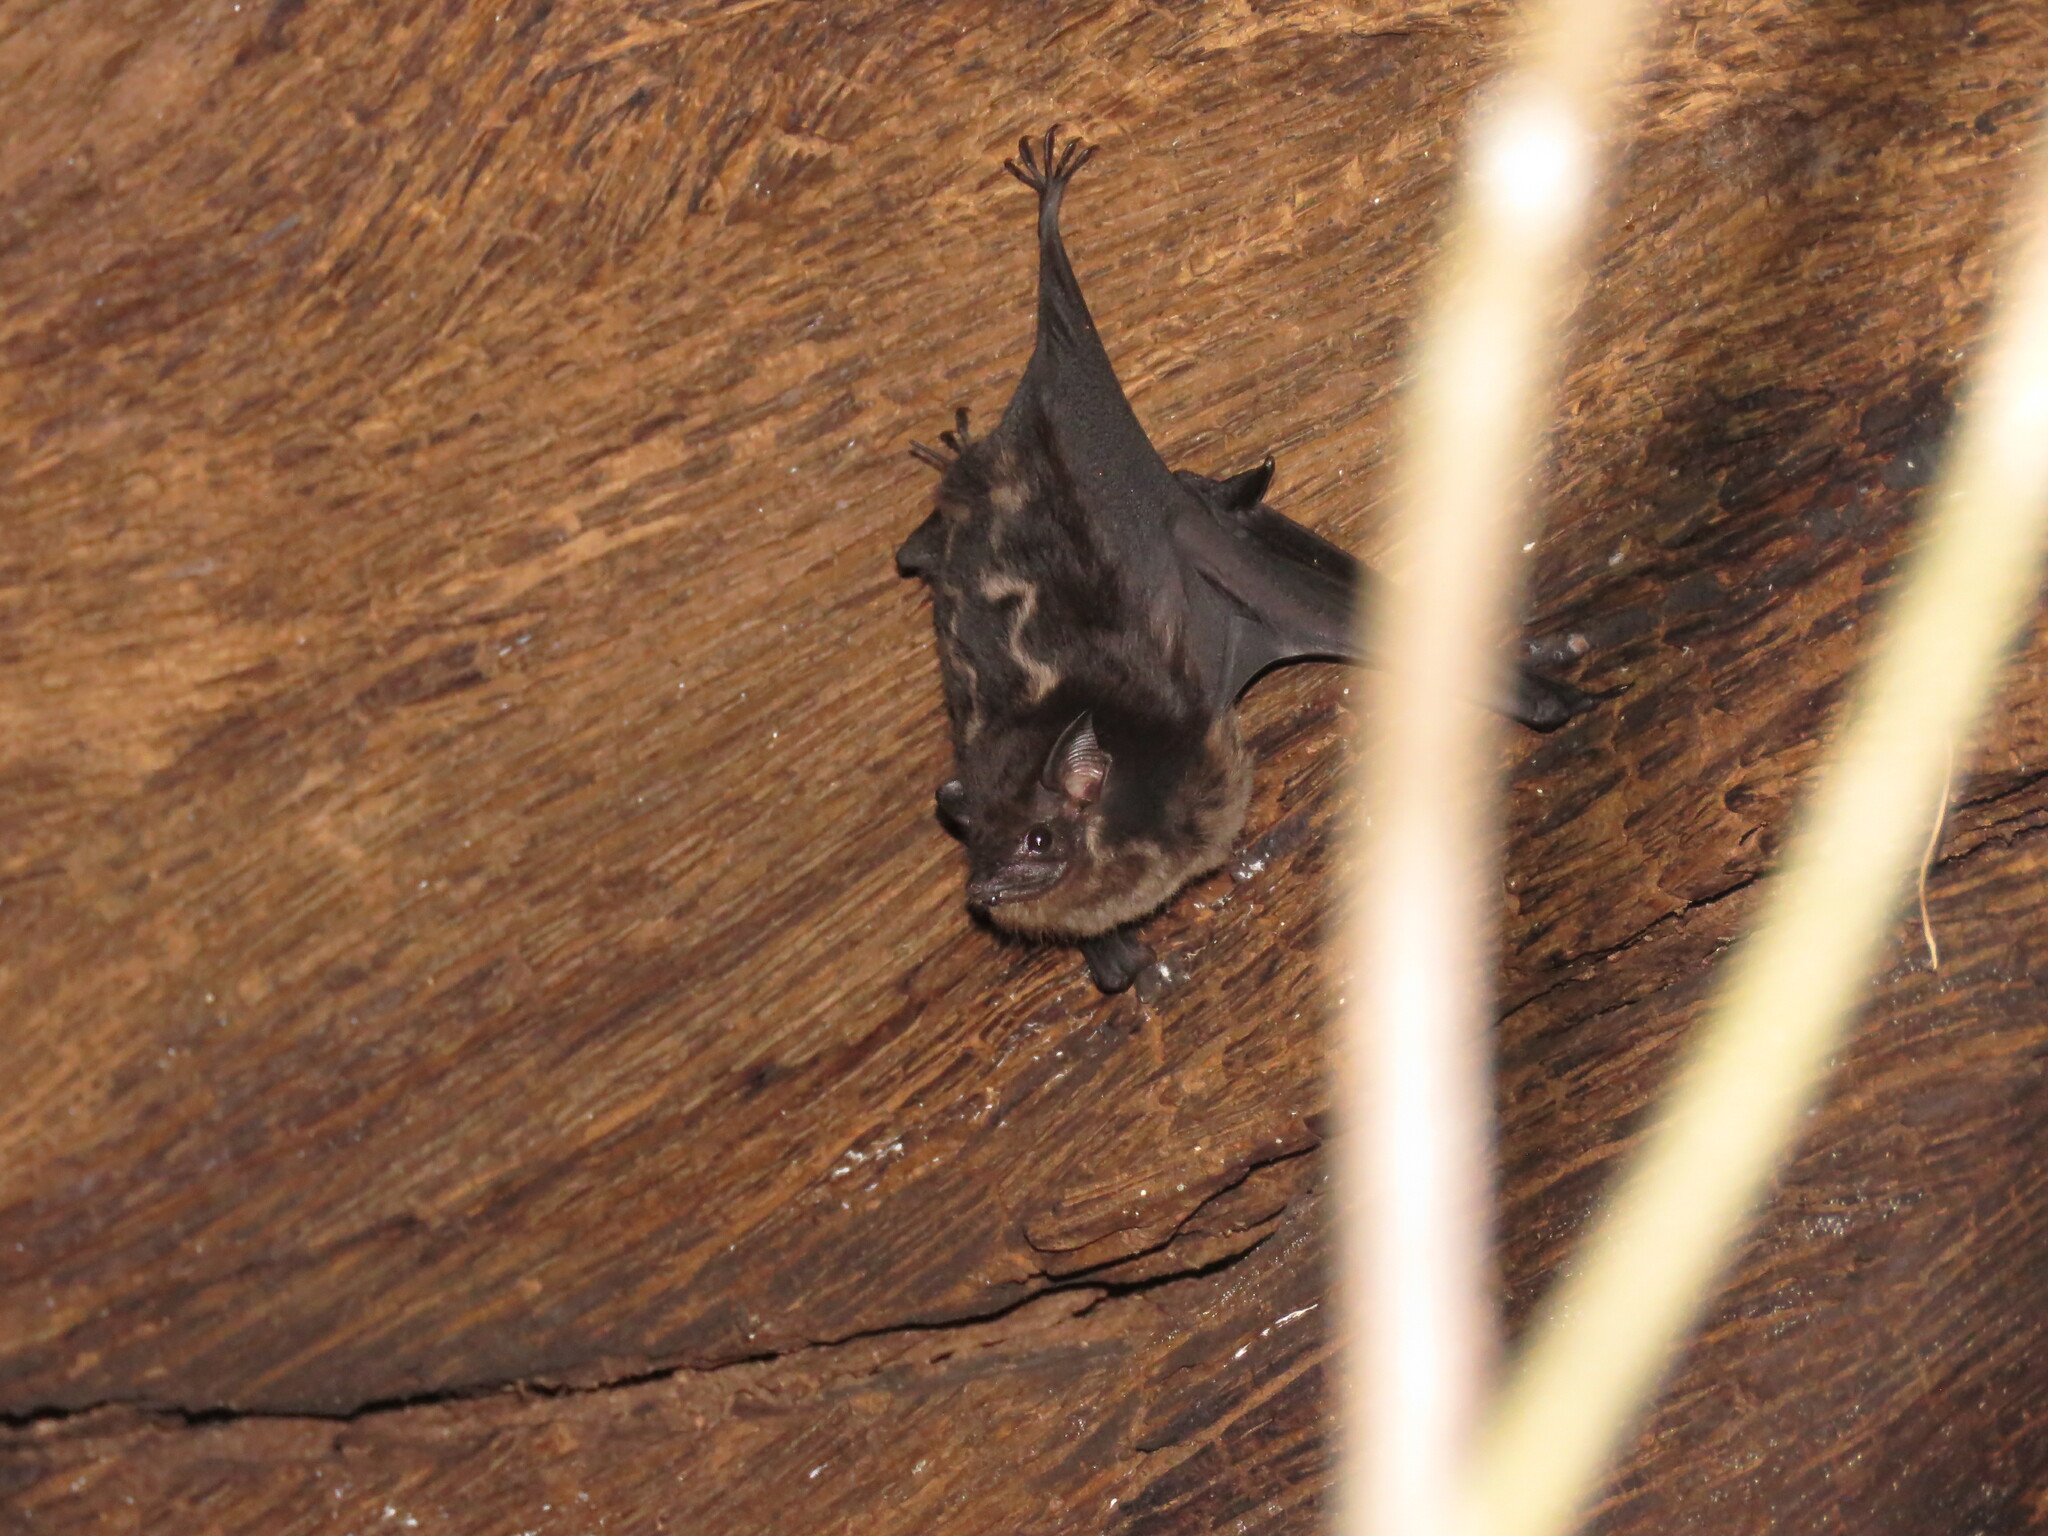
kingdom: Animalia
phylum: Chordata
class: Mammalia
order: Chiroptera
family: Emballonuridae
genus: Saccopteryx
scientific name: Saccopteryx bilineata
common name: Greater sac-winged bat
